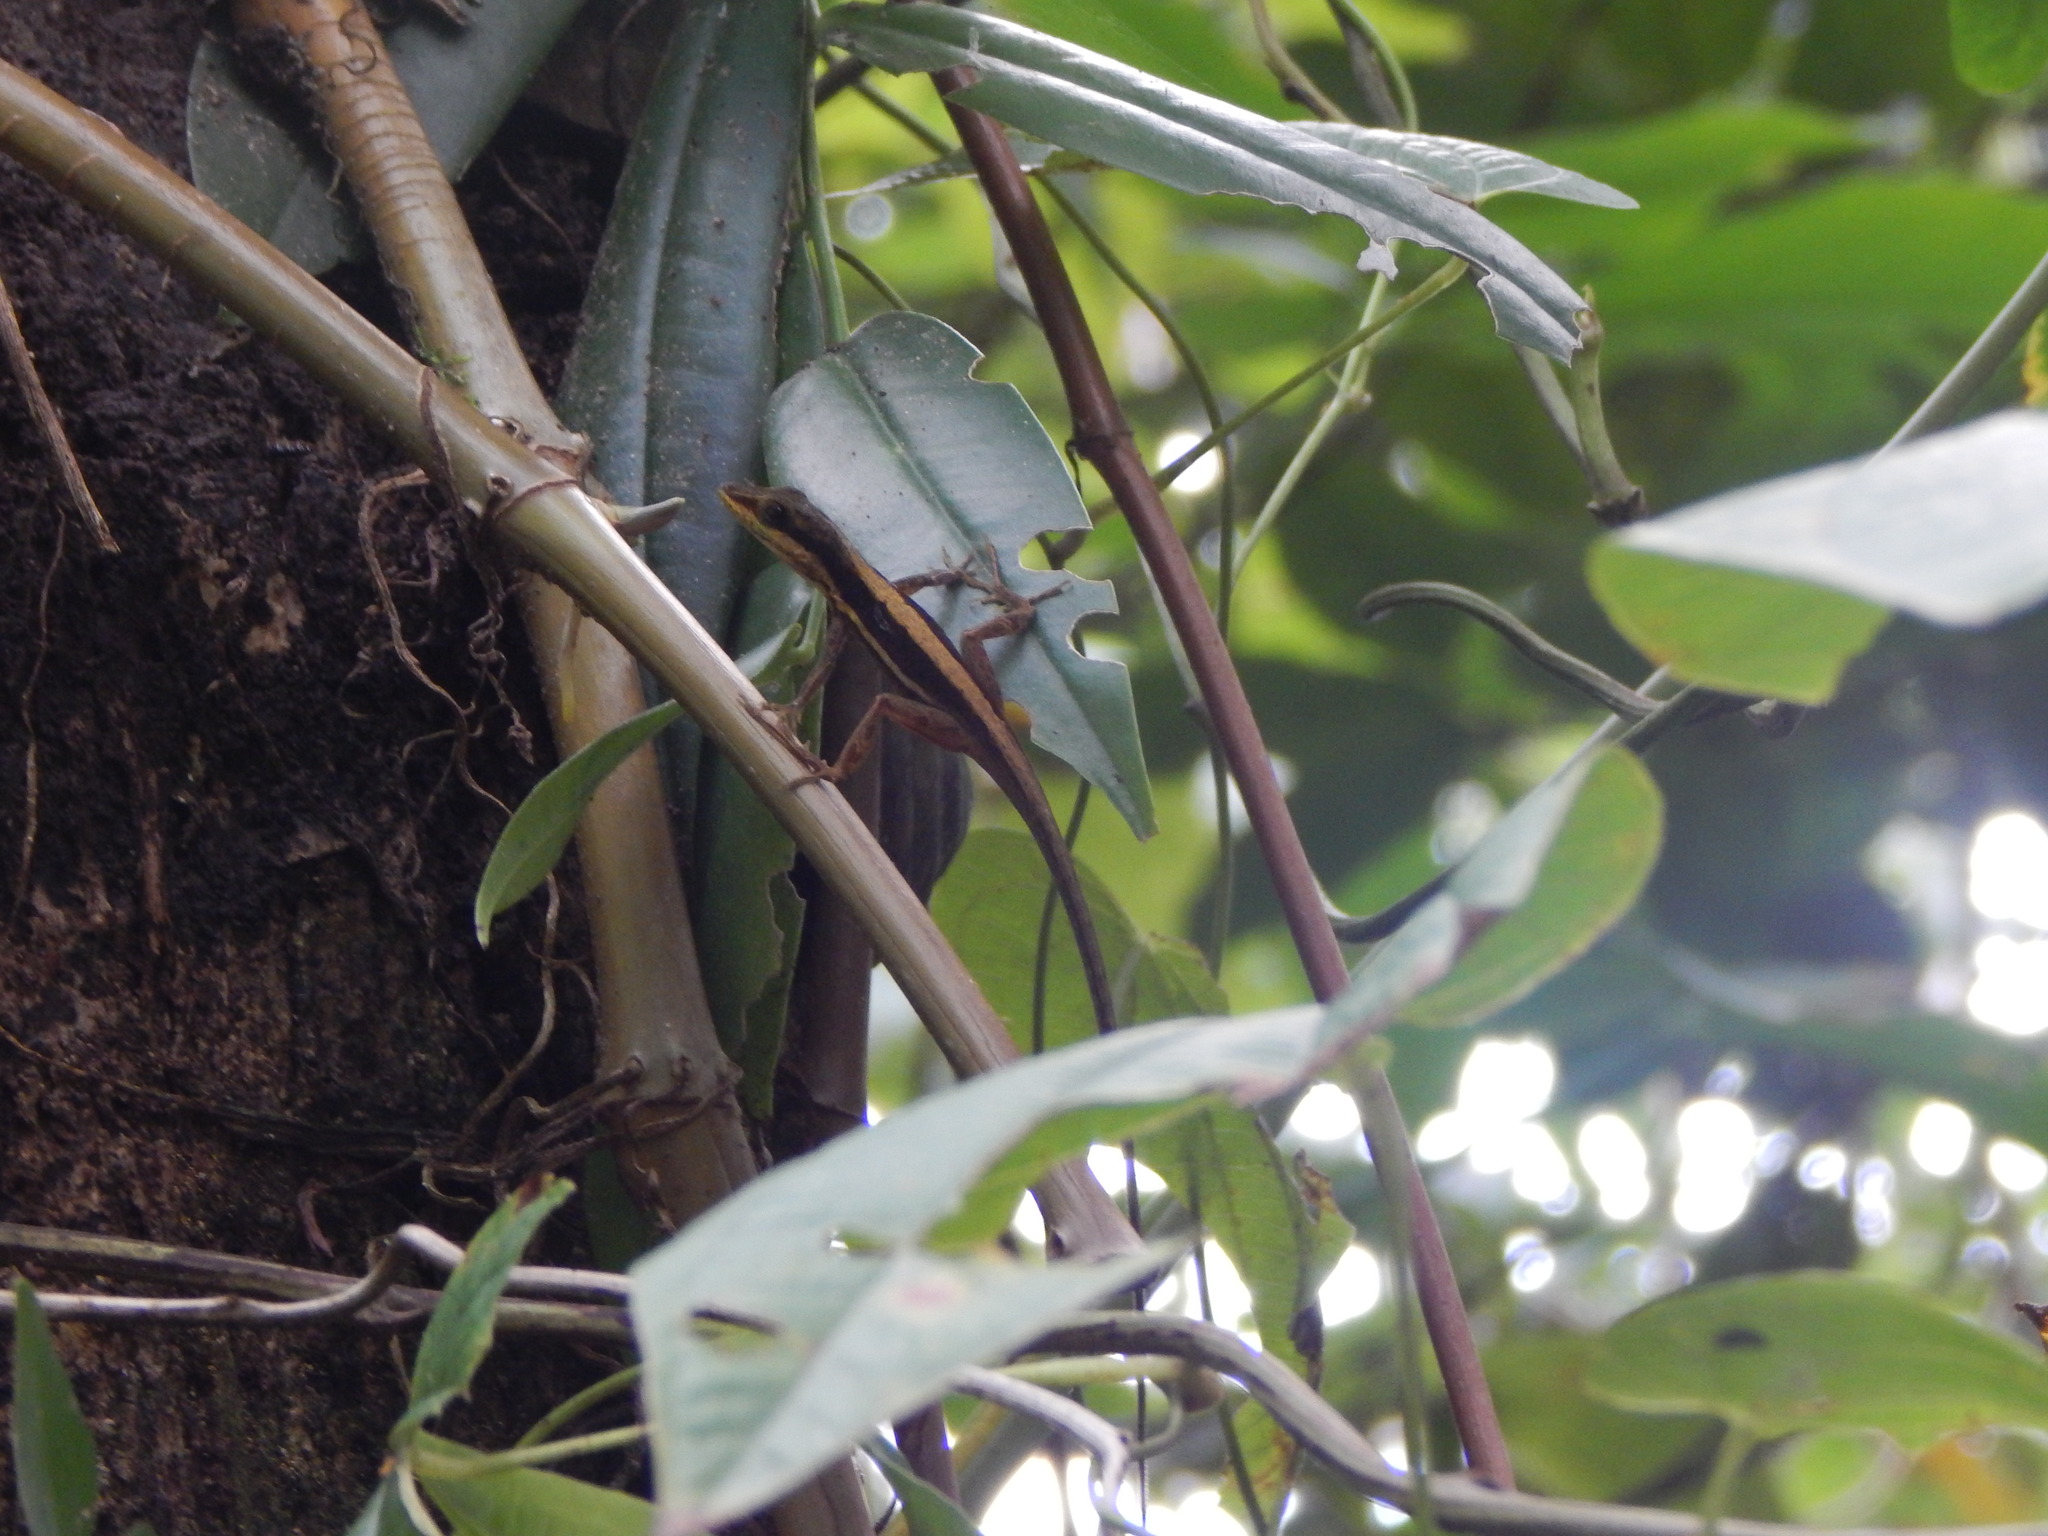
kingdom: Animalia
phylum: Chordata
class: Squamata
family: Dactyloidae
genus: Anolis
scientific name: Anolis krugi
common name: Krug's anole
